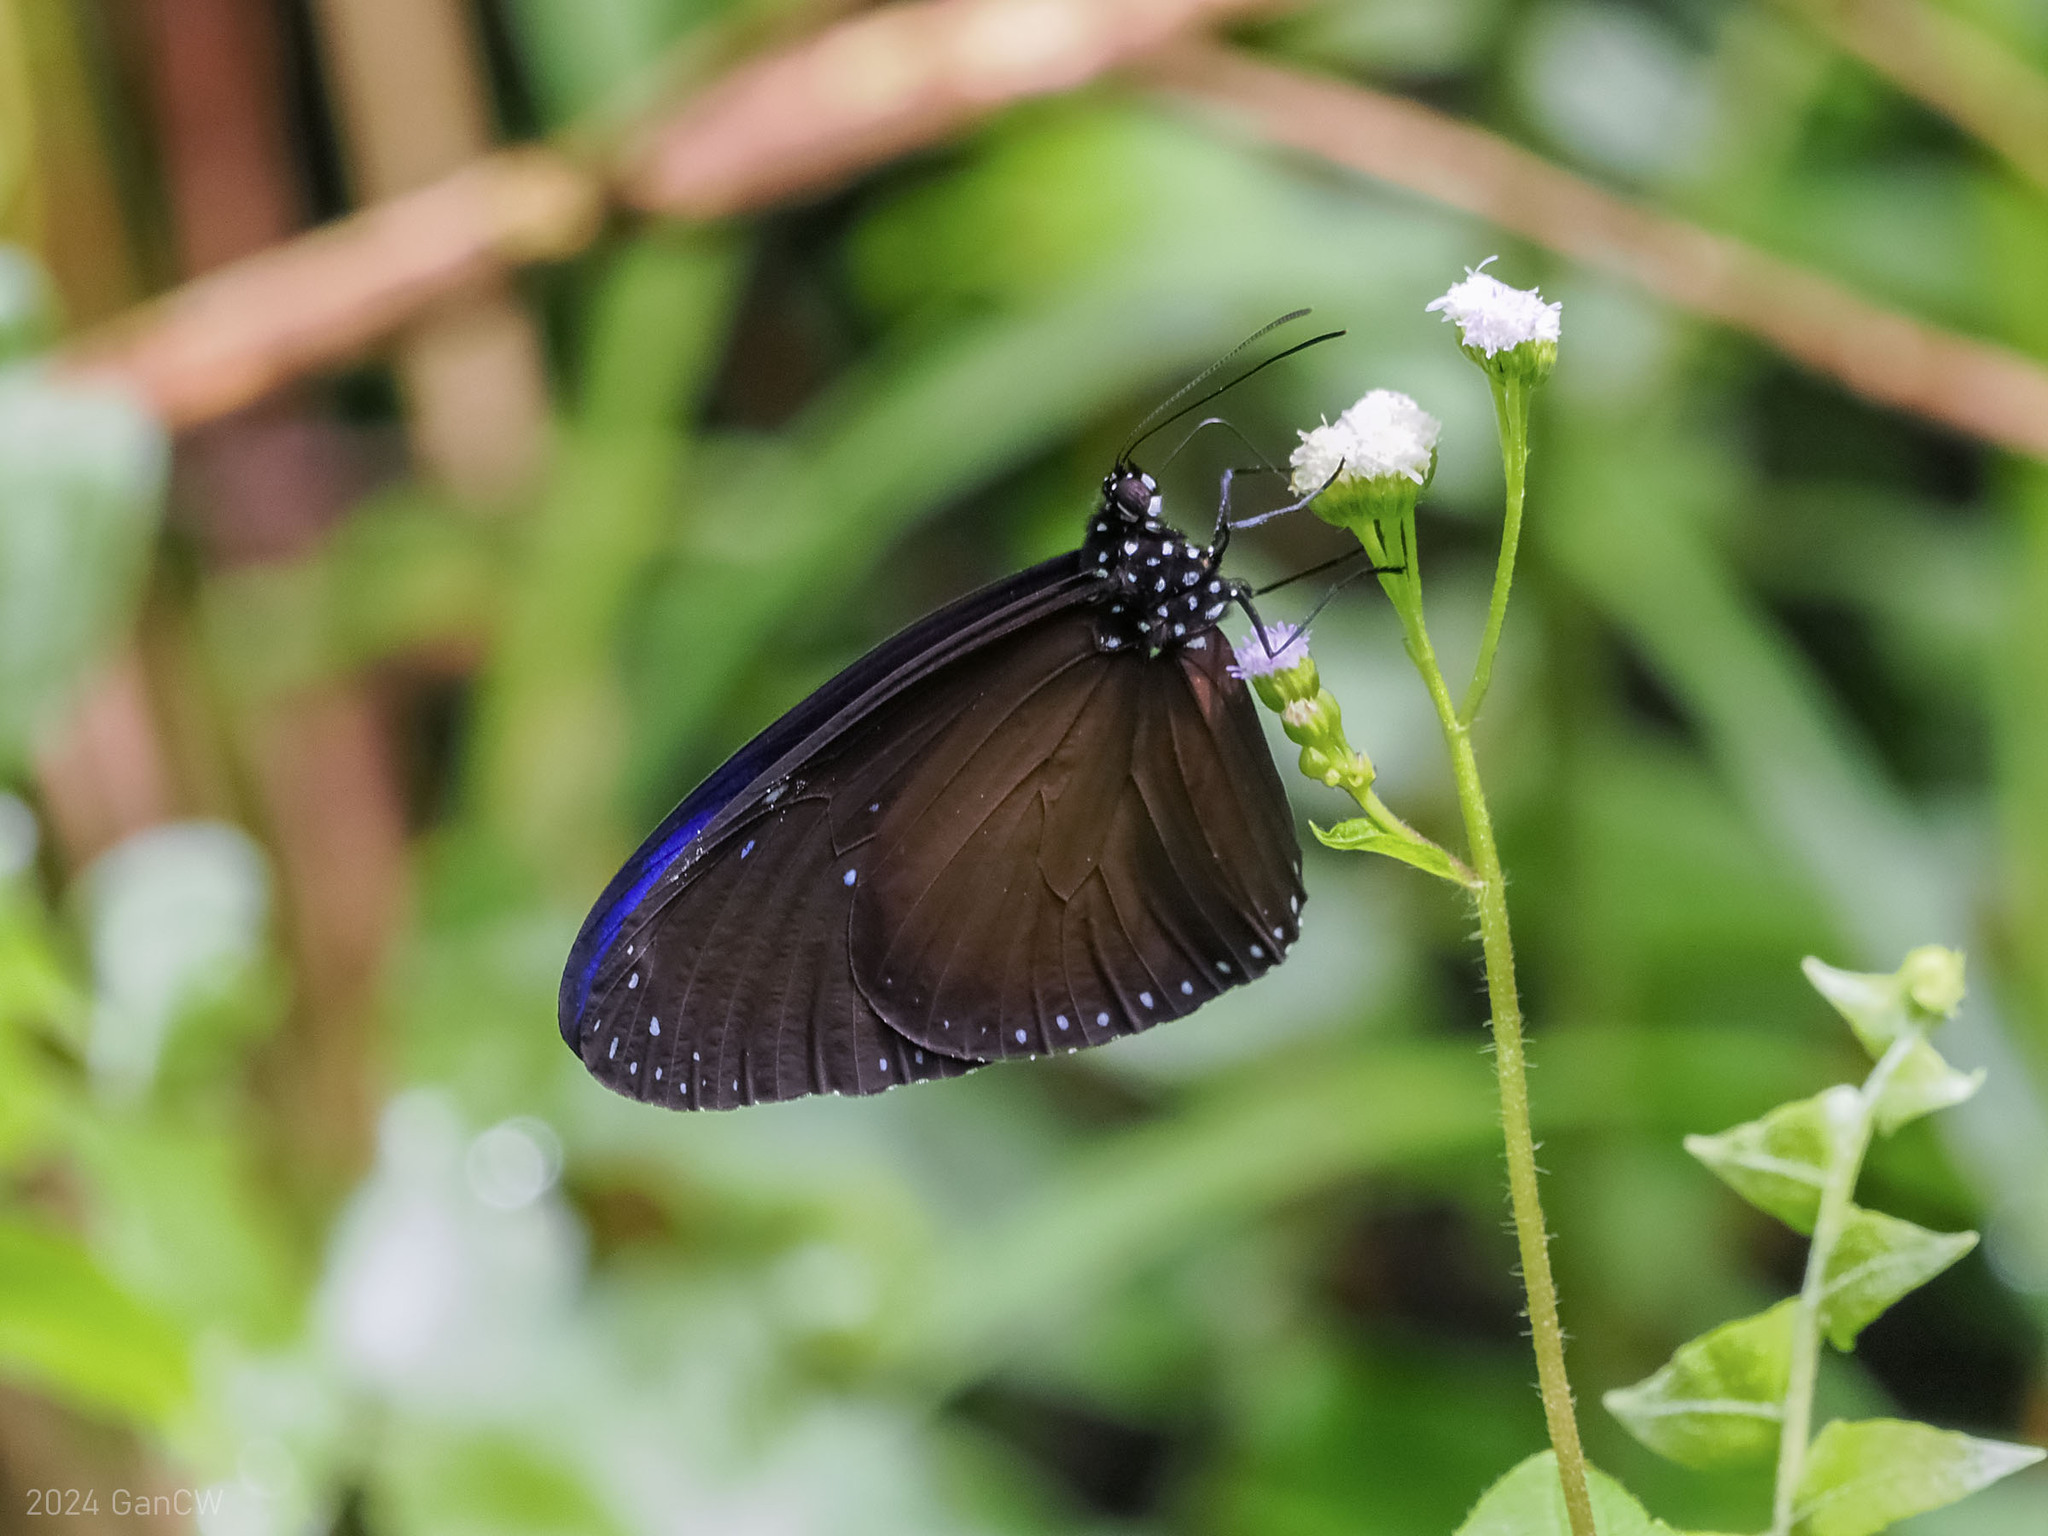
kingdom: Animalia
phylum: Arthropoda
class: Insecta
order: Lepidoptera
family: Nymphalidae
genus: Euploea
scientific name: Euploea mulciber
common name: Striped blue crow butterfly
